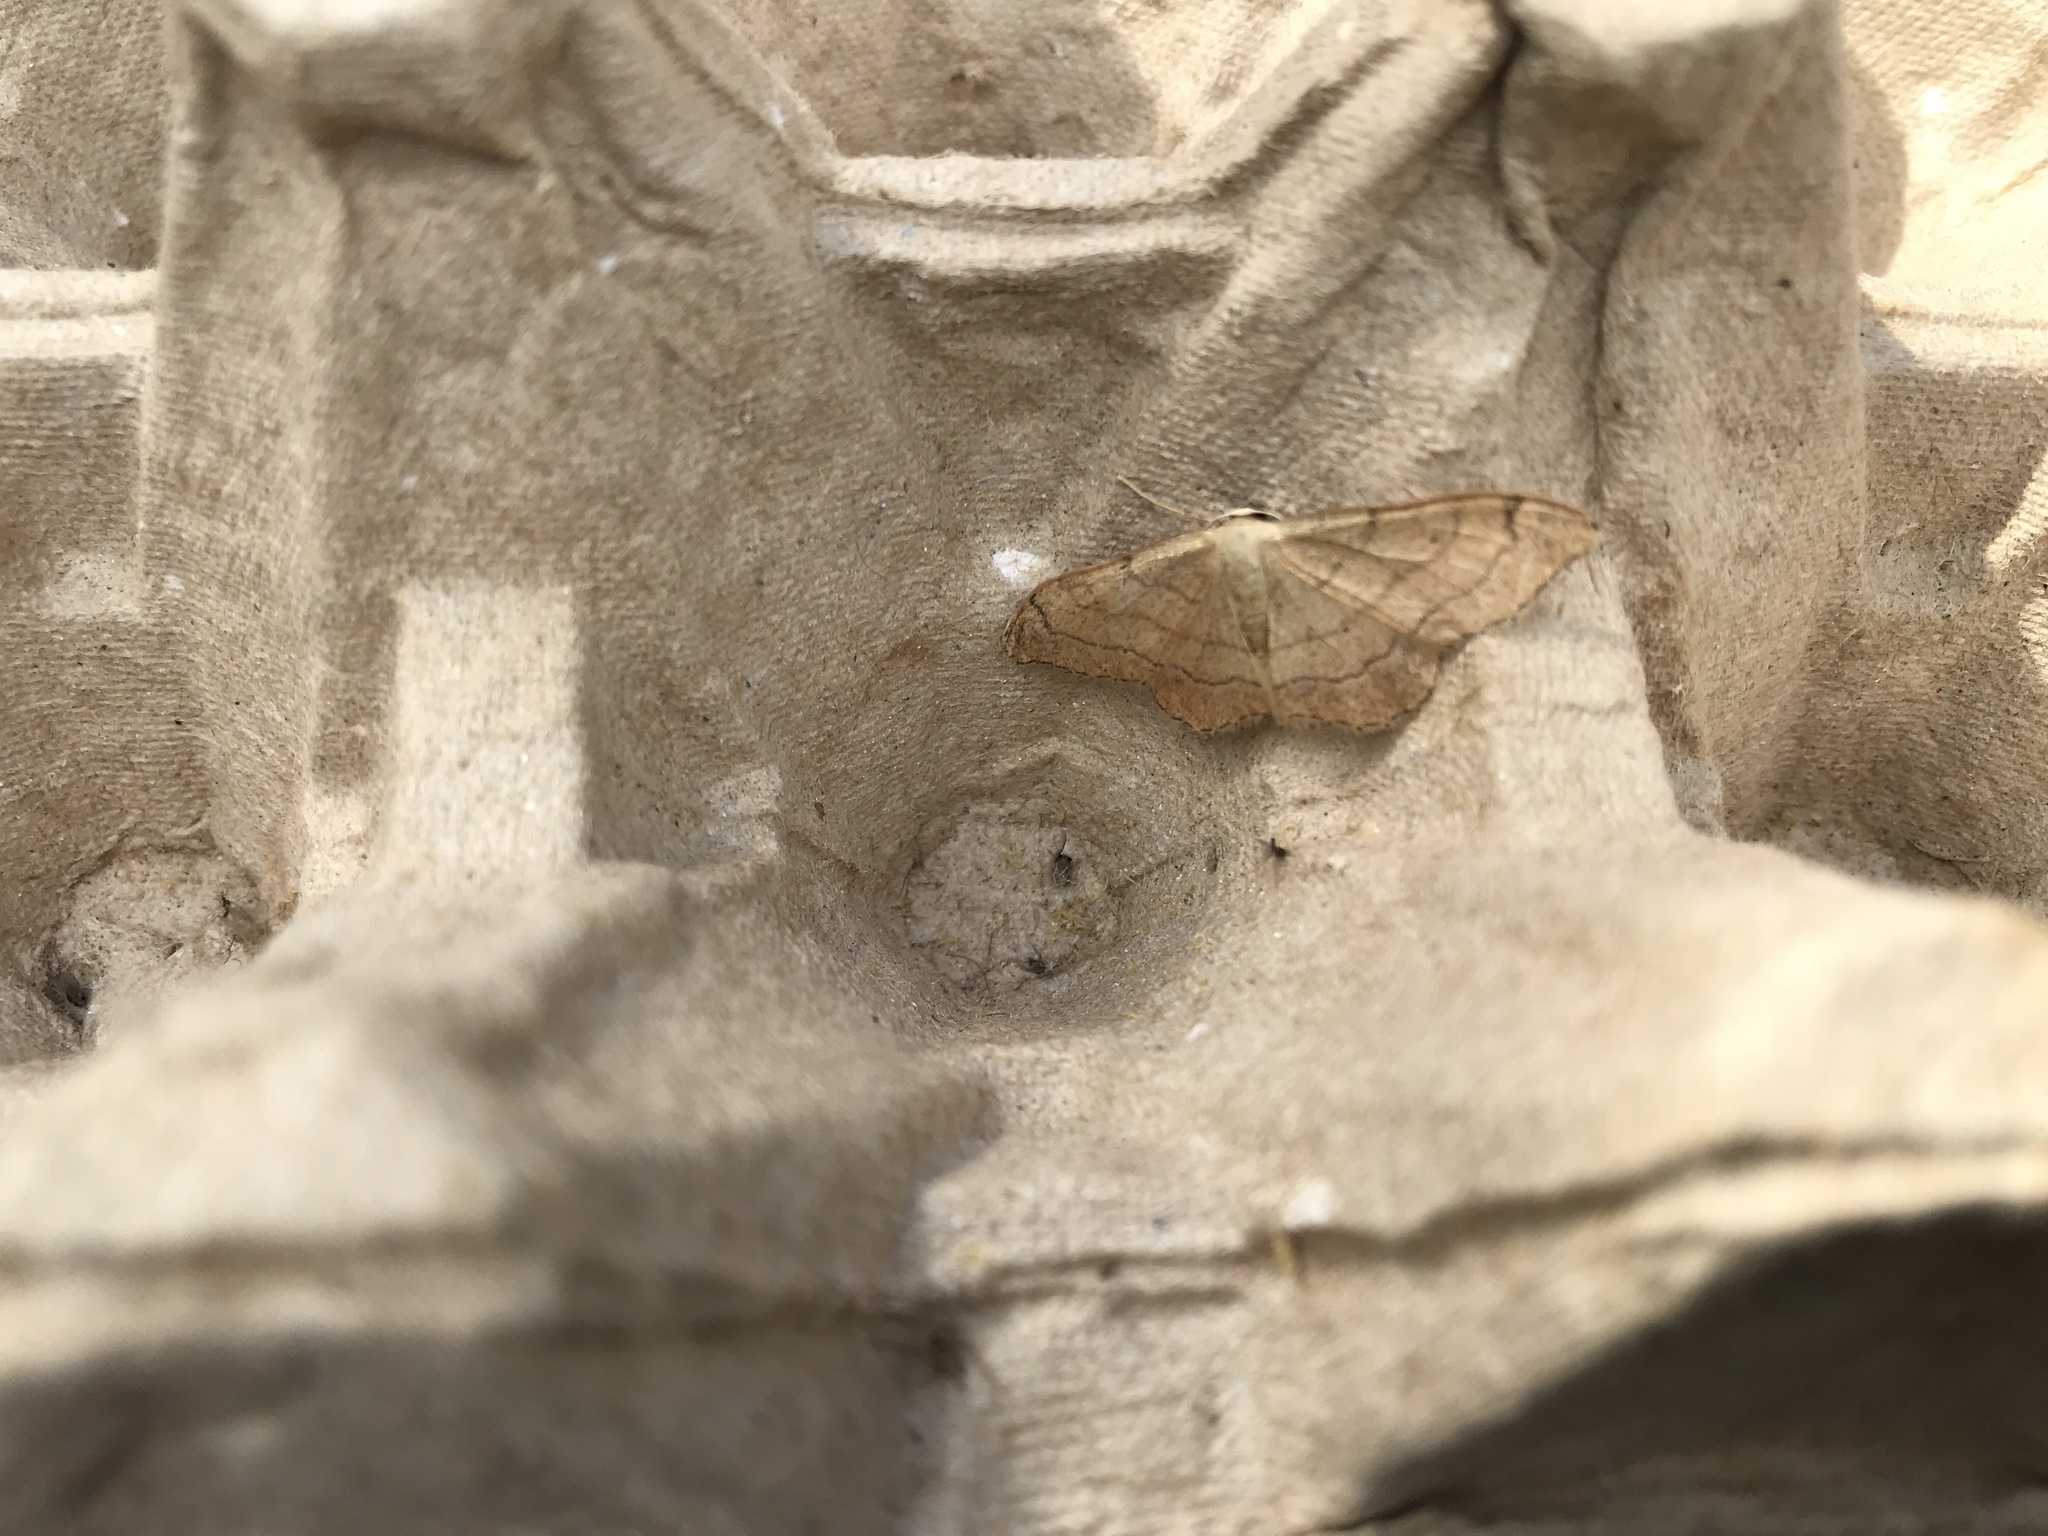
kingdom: Animalia
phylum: Arthropoda
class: Insecta
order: Lepidoptera
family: Geometridae
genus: Idaea
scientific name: Idaea aversata
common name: Riband wave
